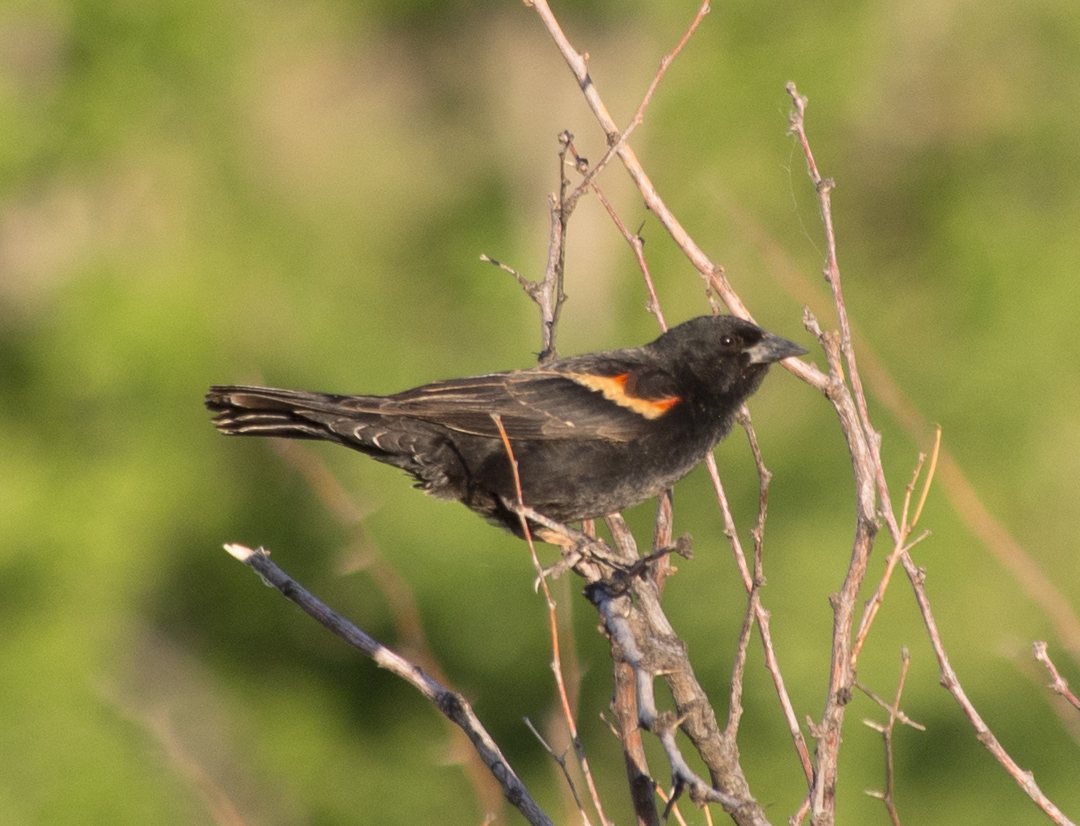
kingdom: Animalia
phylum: Chordata
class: Aves
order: Passeriformes
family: Icteridae
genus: Agelaius
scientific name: Agelaius phoeniceus
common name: Red-winged blackbird
